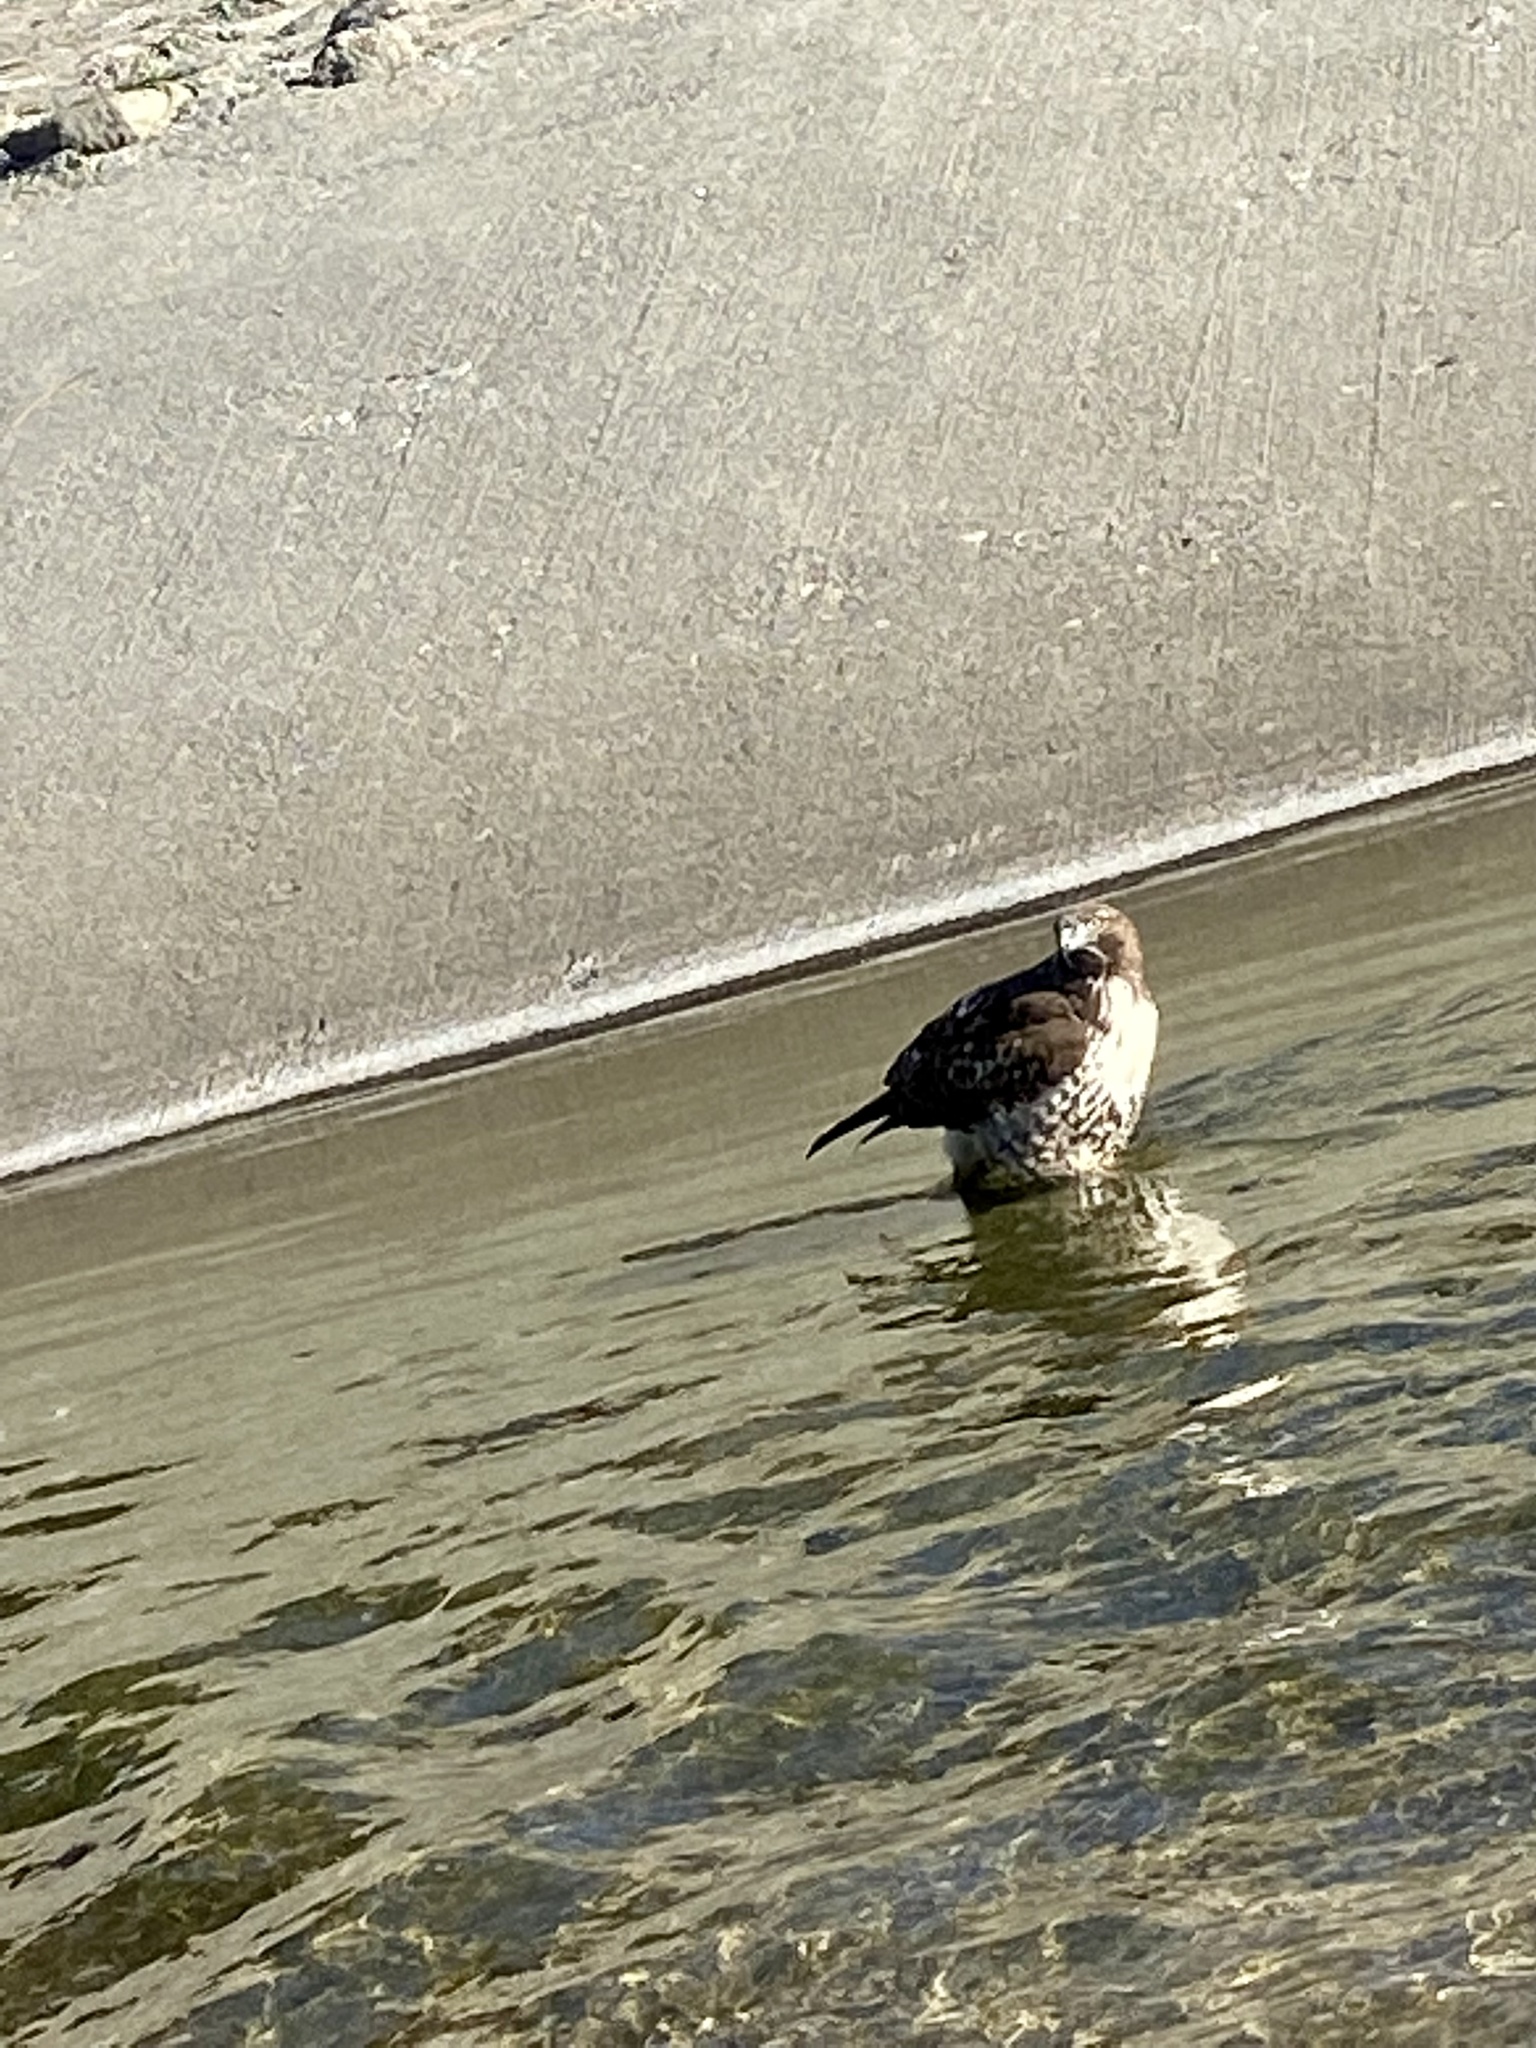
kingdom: Animalia
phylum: Chordata
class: Aves
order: Accipitriformes
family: Accipitridae
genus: Buteo
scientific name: Buteo jamaicensis
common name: Red-tailed hawk
